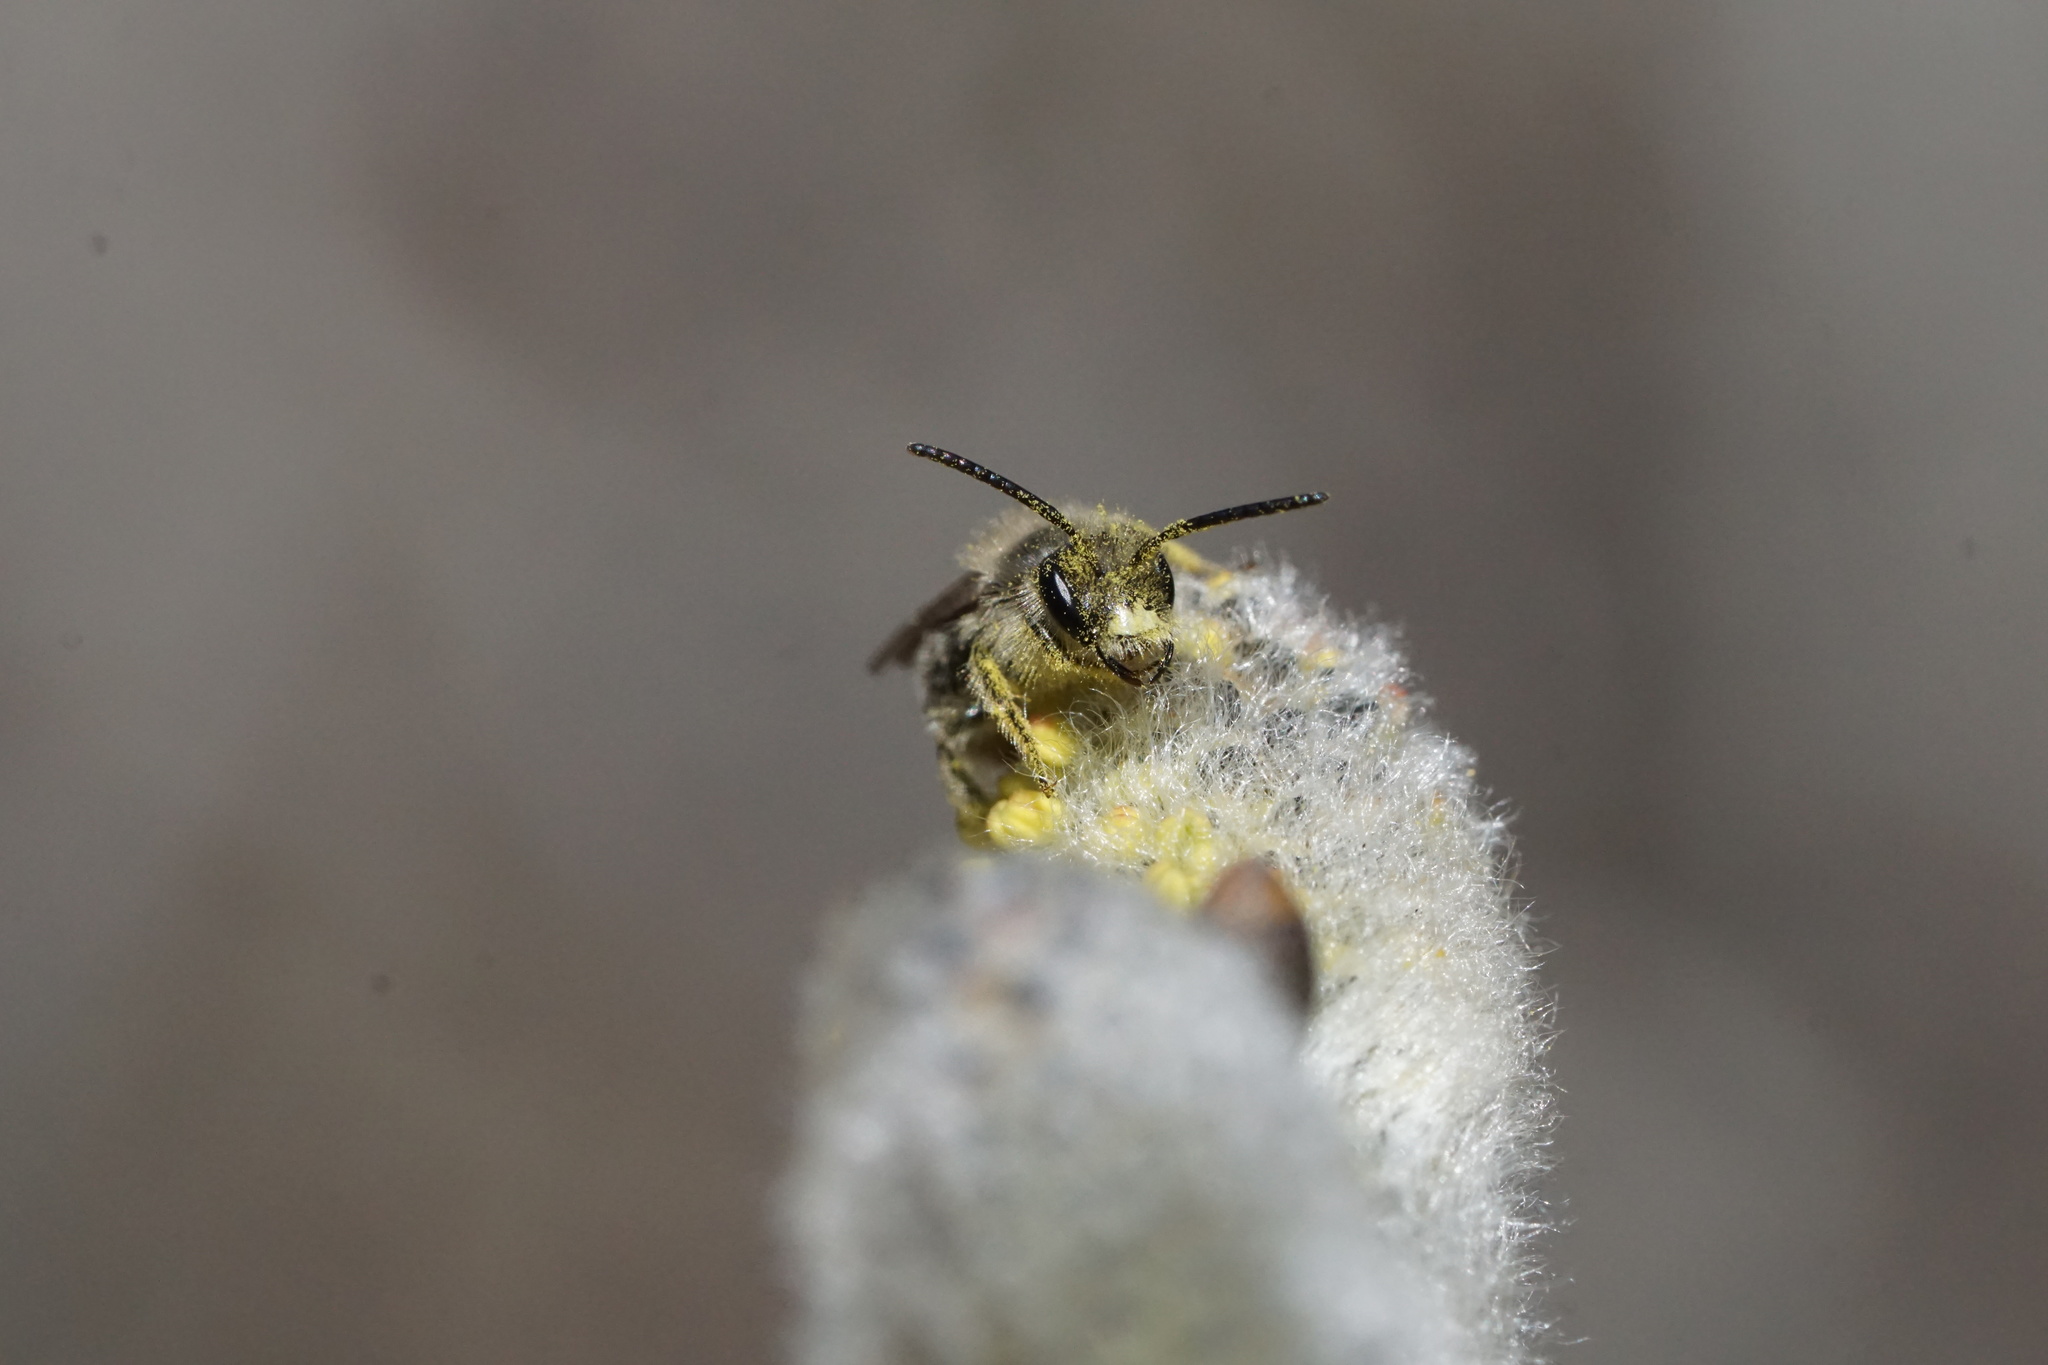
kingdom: Animalia
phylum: Arthropoda
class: Insecta
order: Hymenoptera
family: Andrenidae
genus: Andrena
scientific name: Andrena bradleyi
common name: Bradley's mining bee
